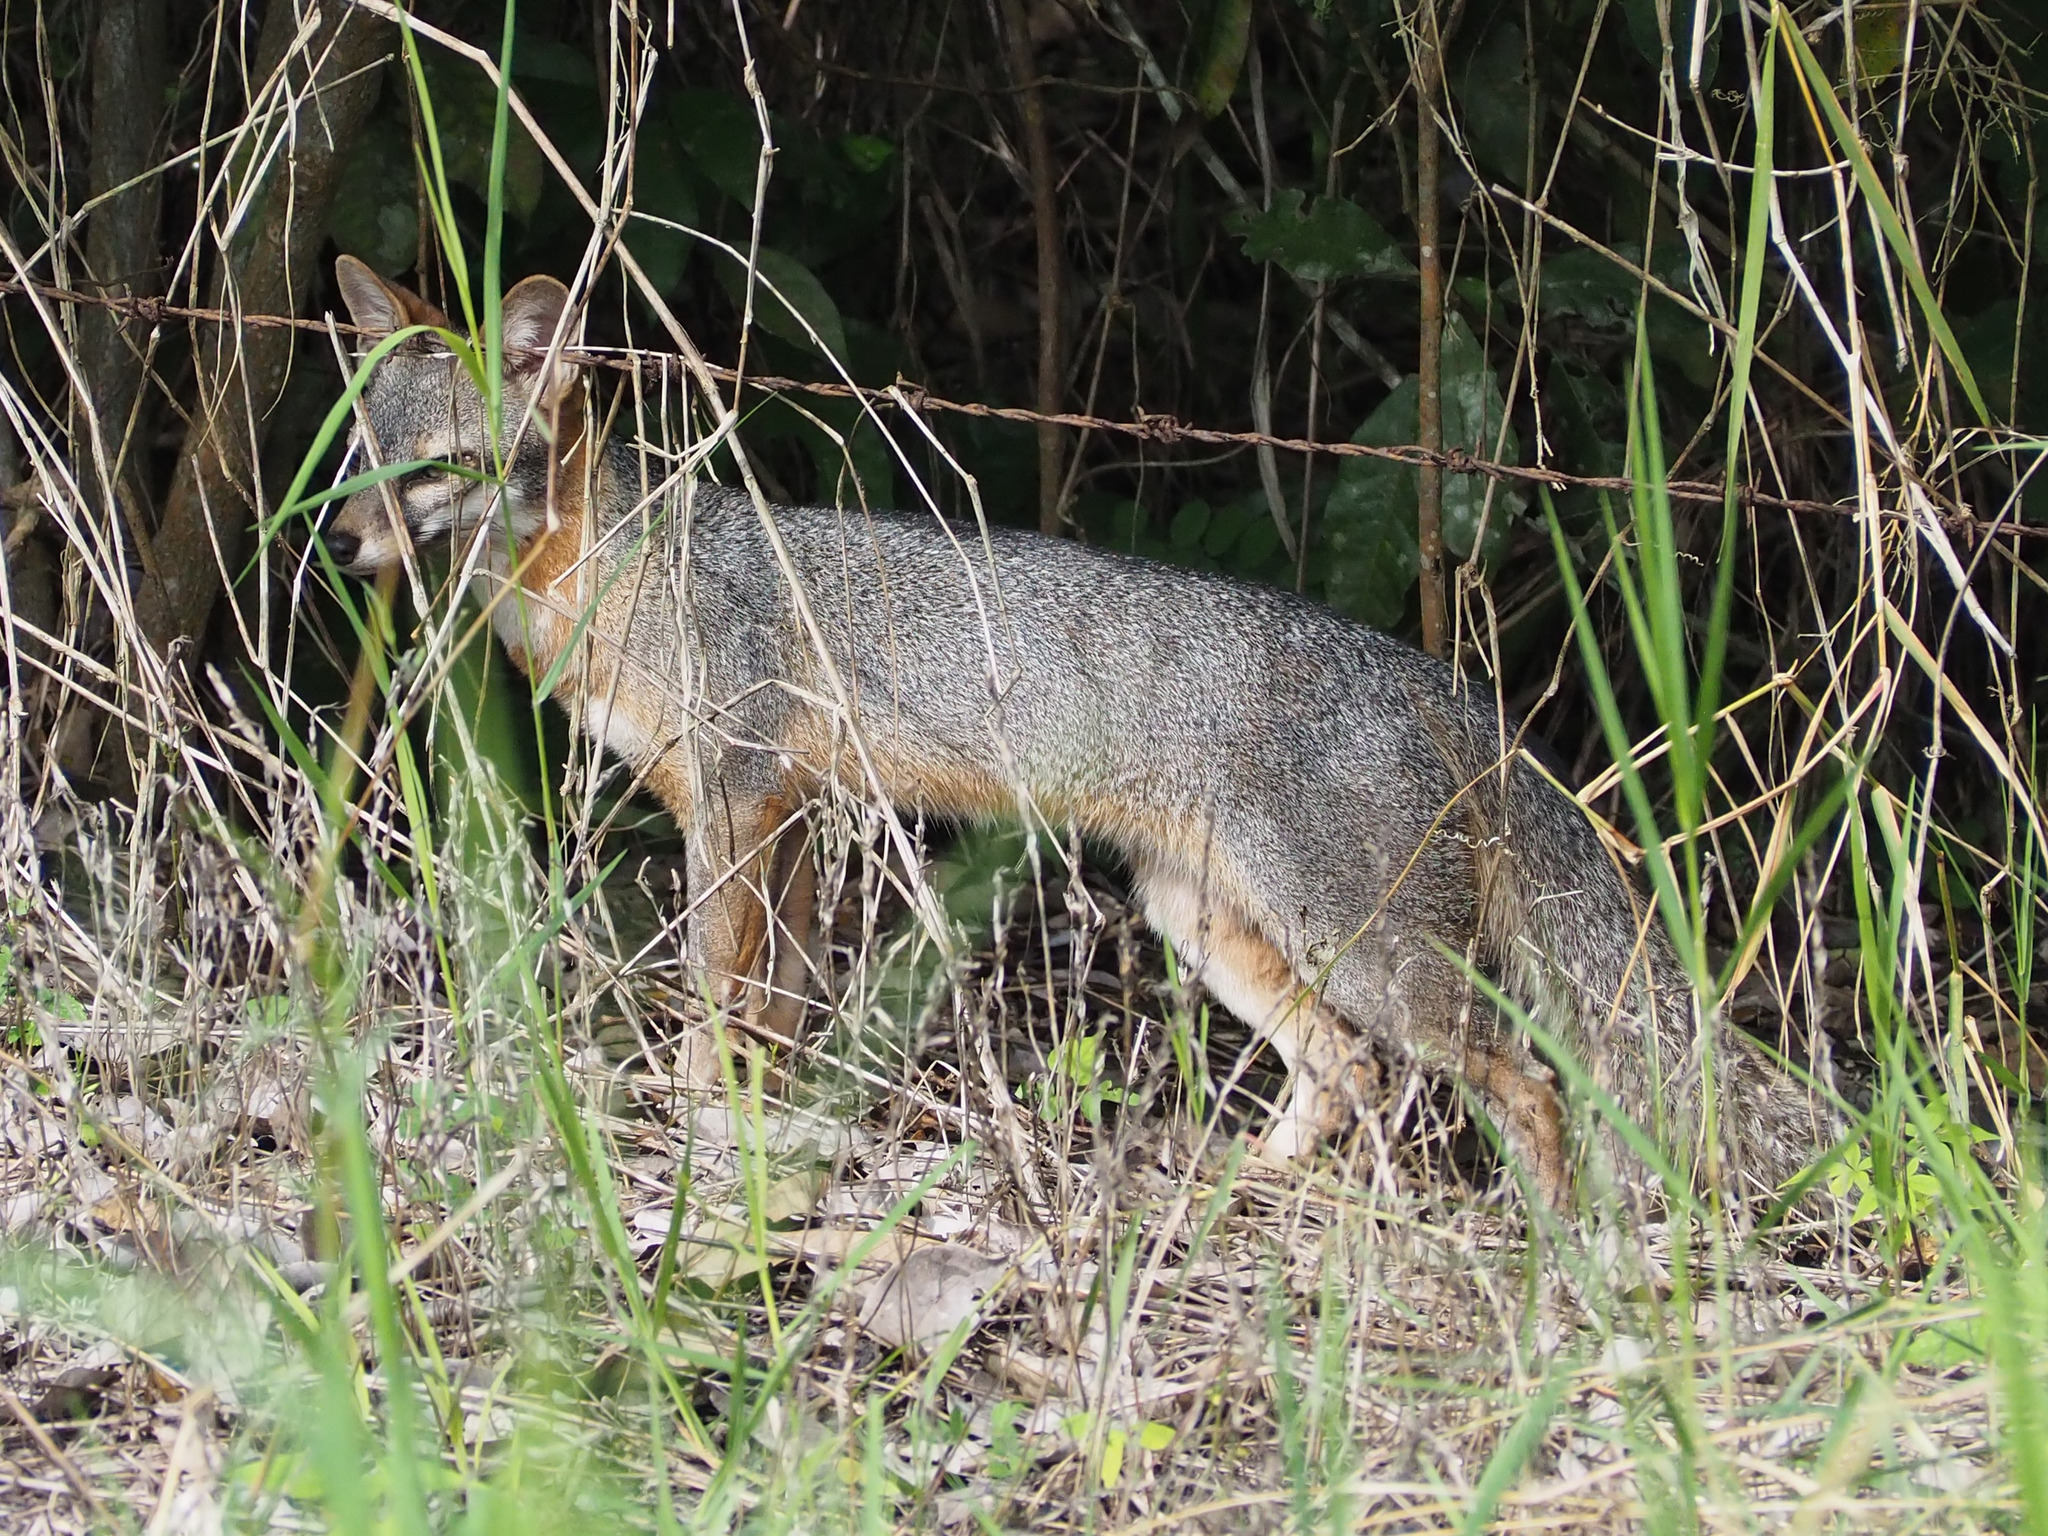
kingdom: Animalia
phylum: Chordata
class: Mammalia
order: Carnivora
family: Canidae
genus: Urocyon
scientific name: Urocyon cinereoargenteus
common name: Gray fox
